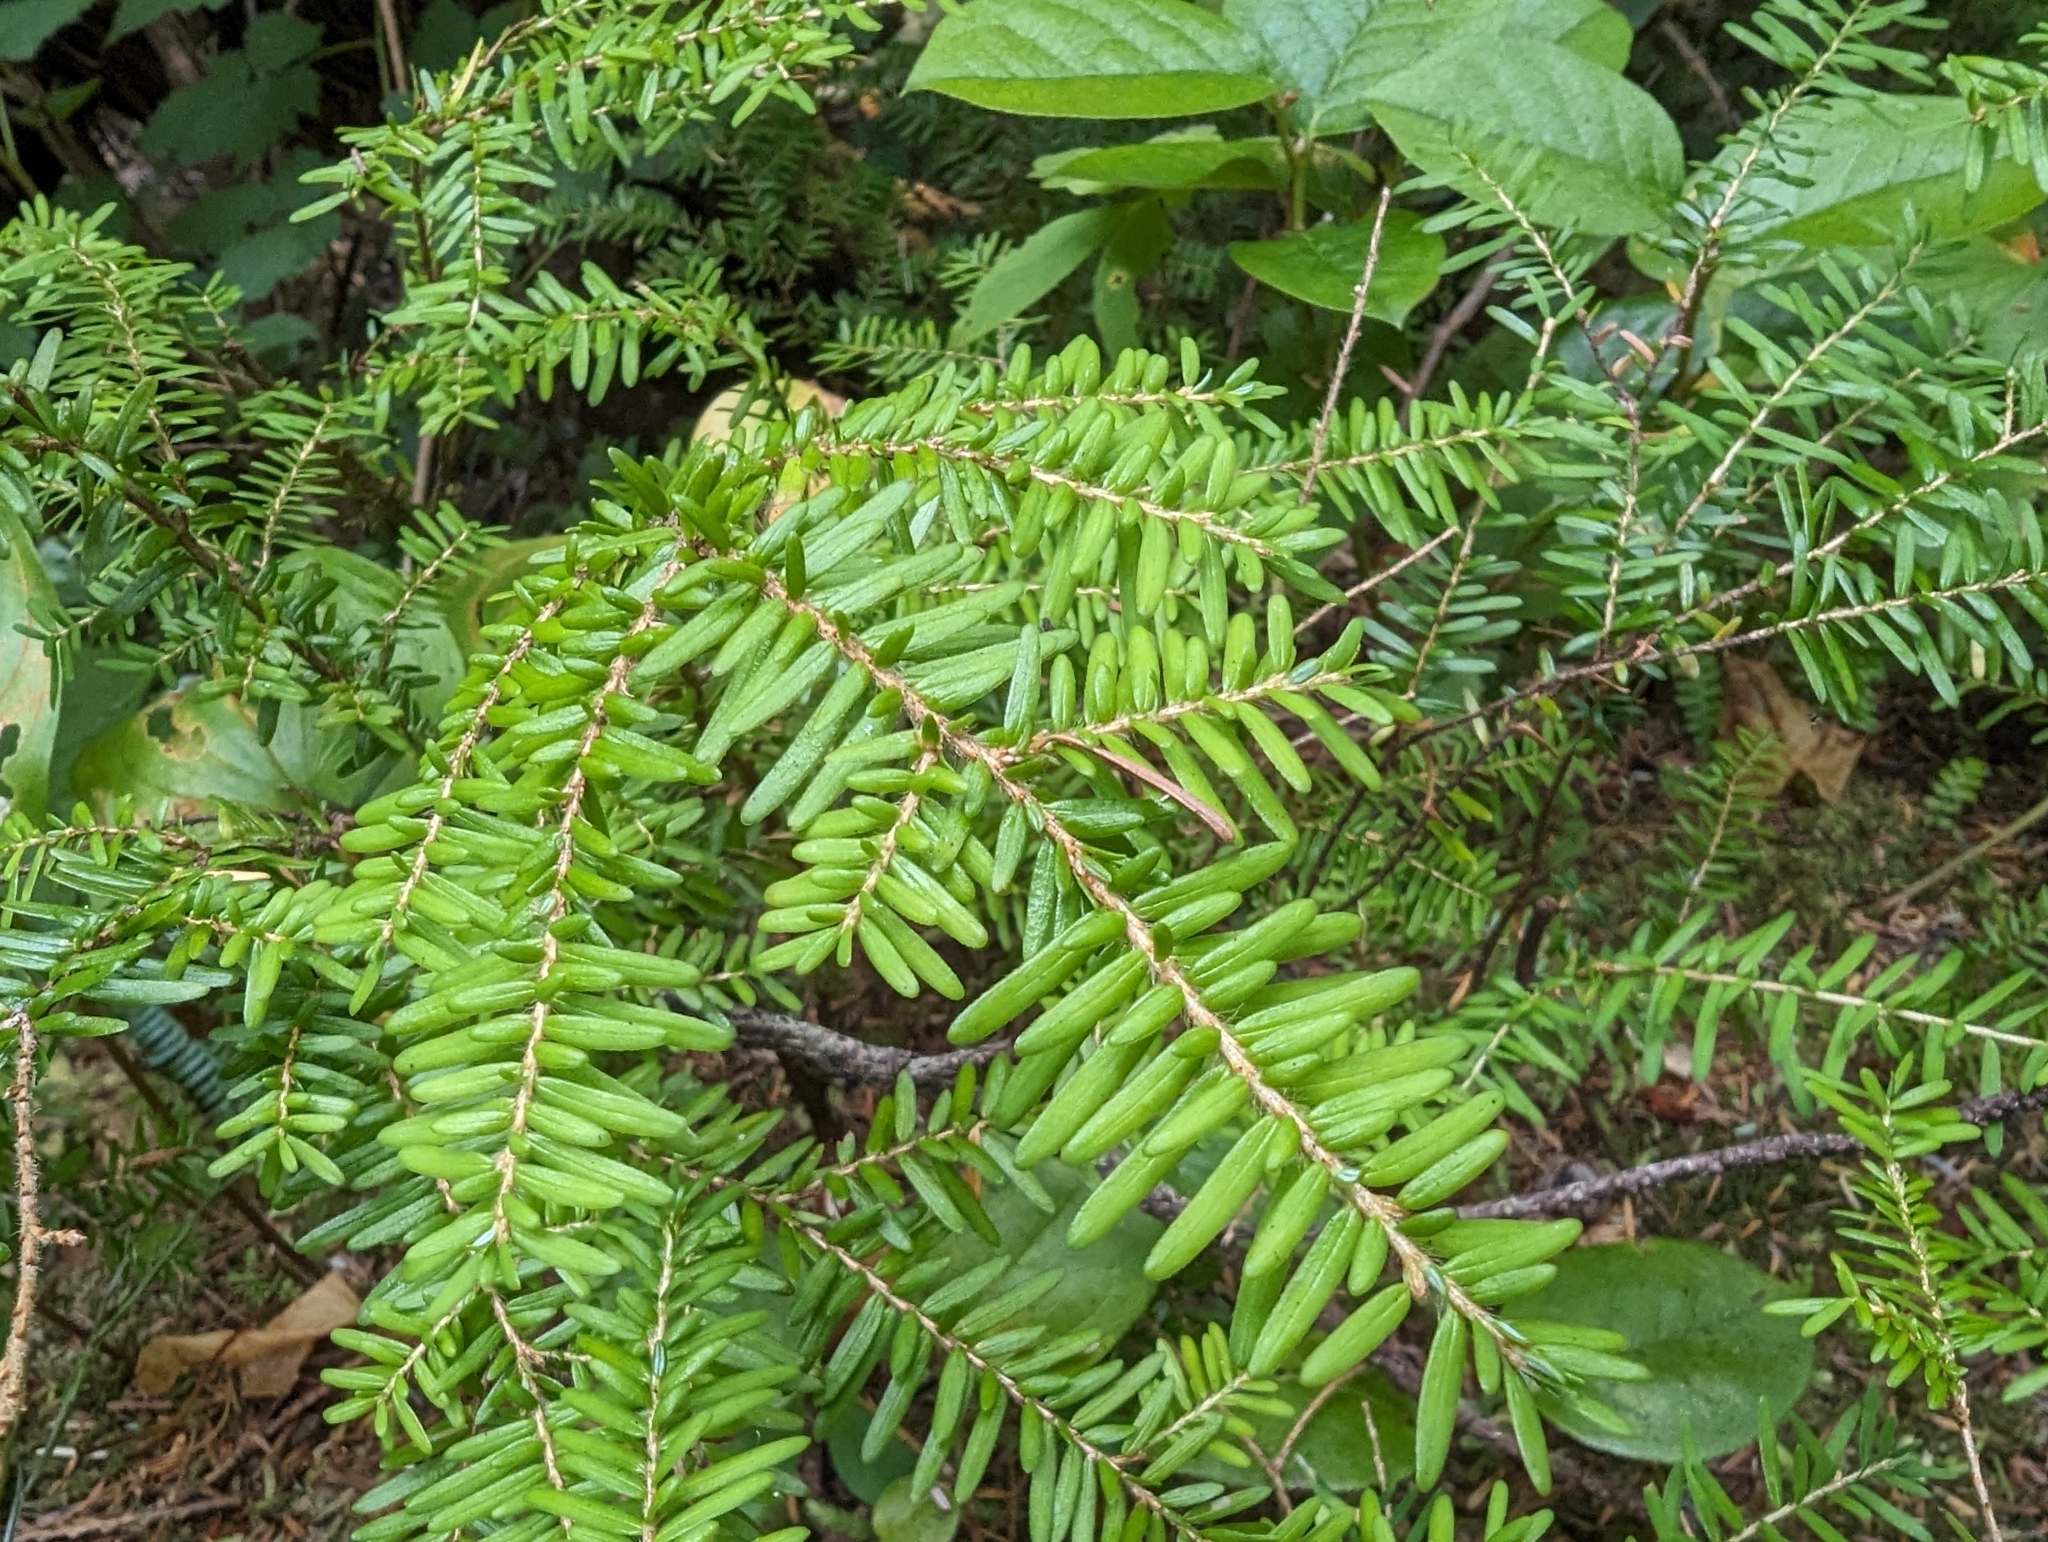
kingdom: Plantae
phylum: Tracheophyta
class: Pinopsida
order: Pinales
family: Pinaceae
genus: Tsuga
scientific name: Tsuga heterophylla
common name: Western hemlock
